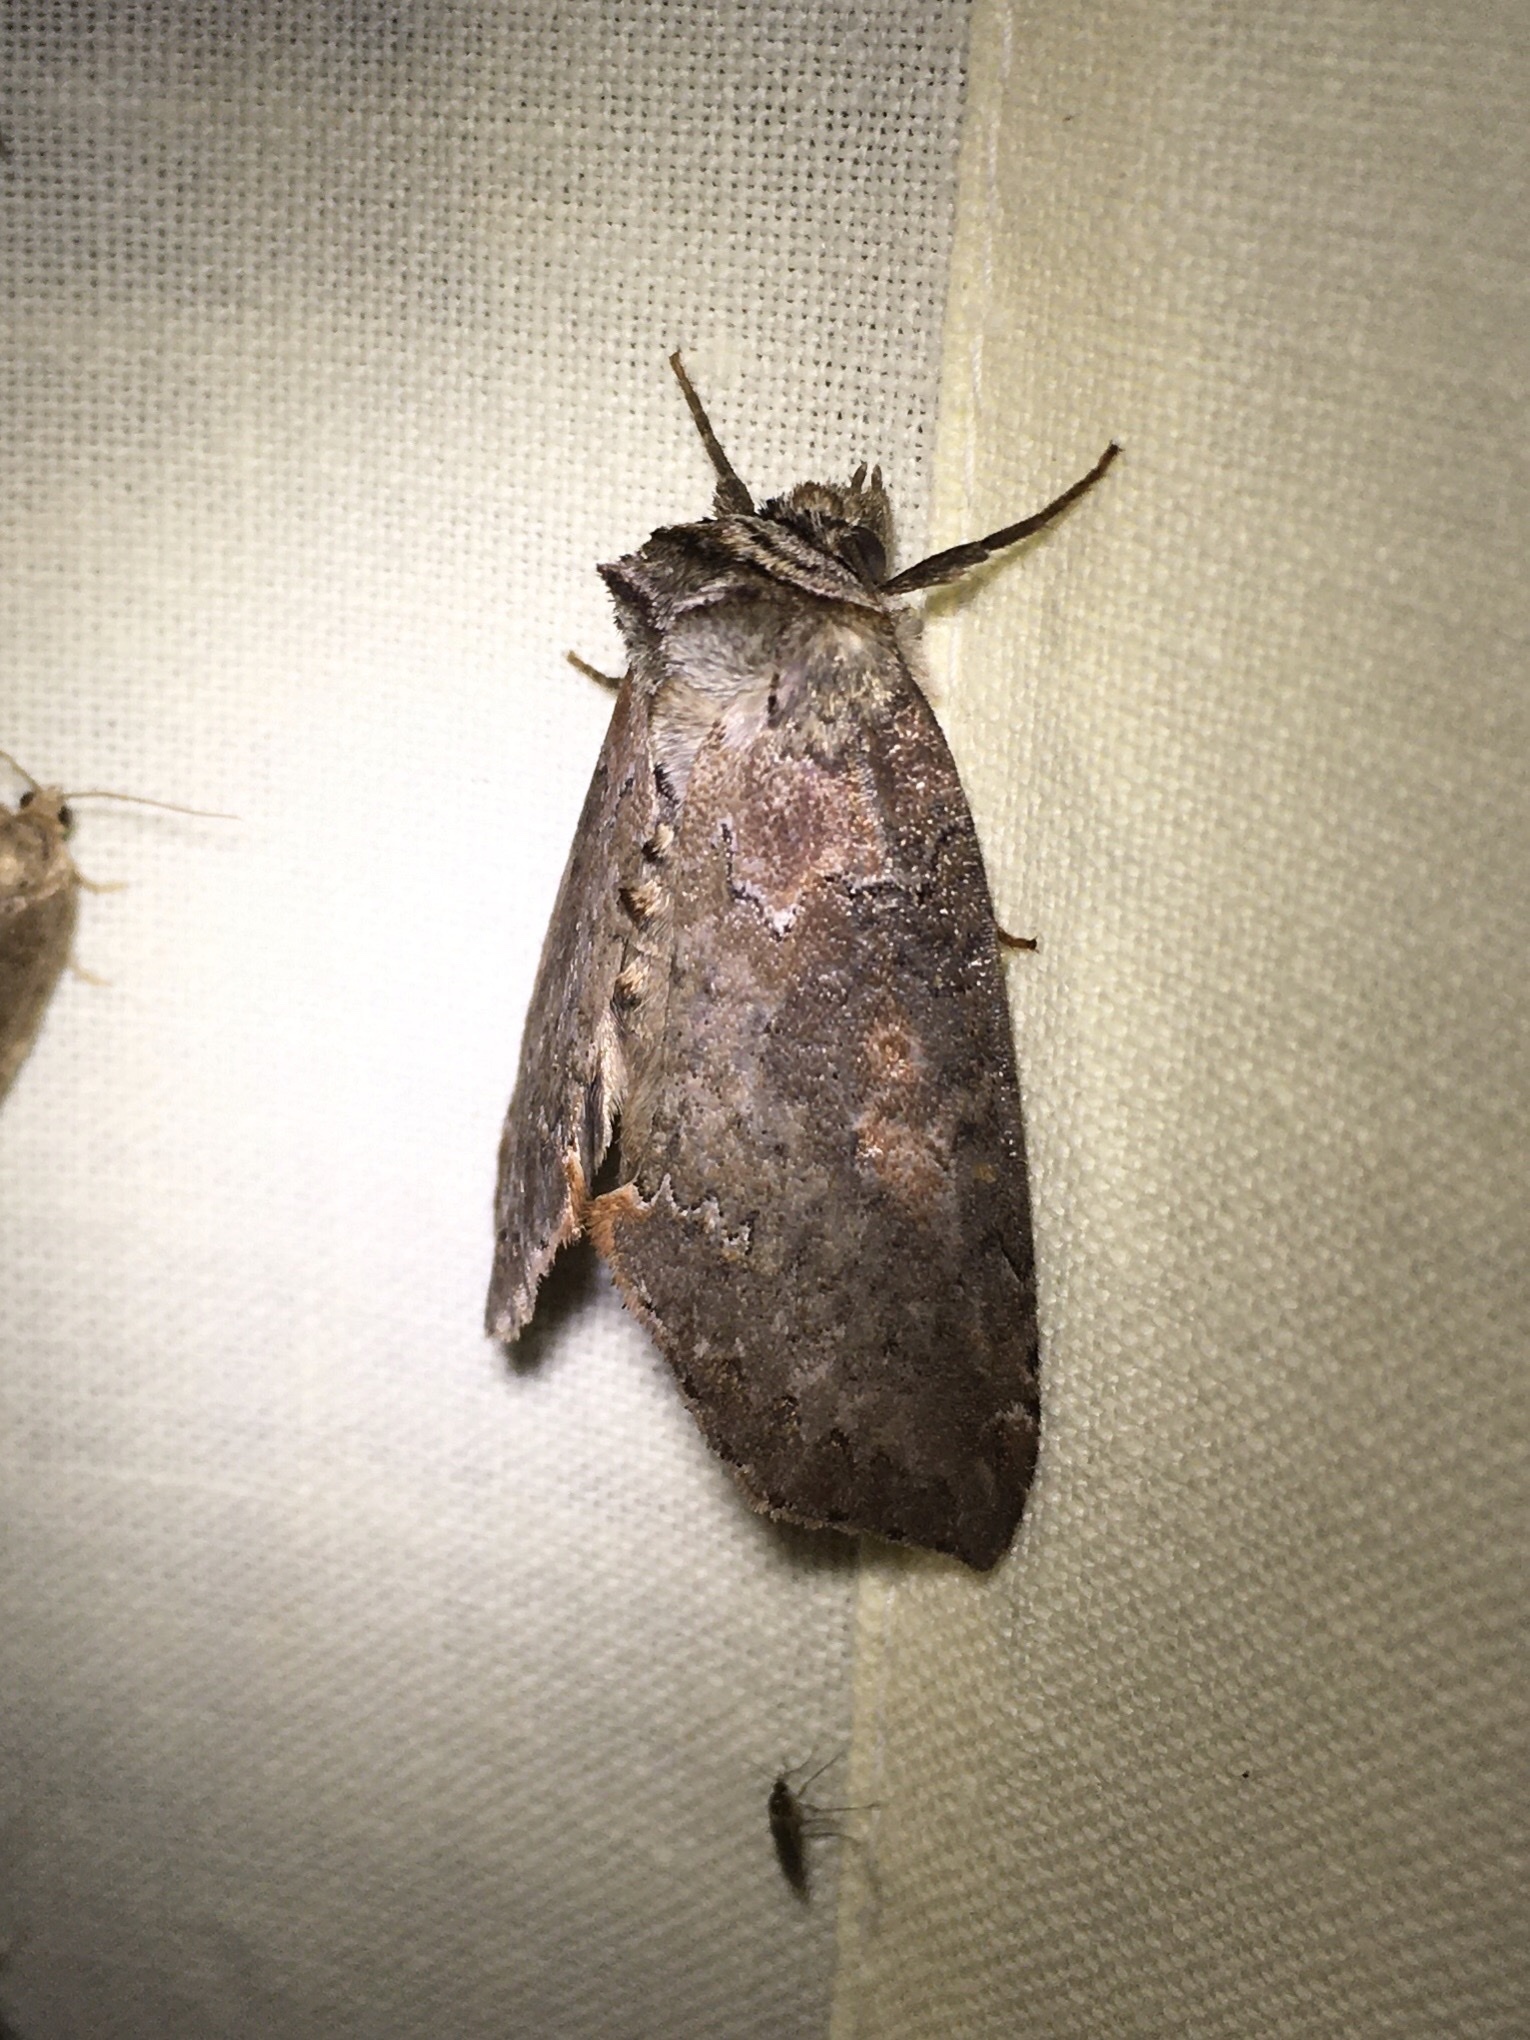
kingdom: Animalia
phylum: Arthropoda
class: Insecta
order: Lepidoptera
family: Drepanidae
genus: Pseudothyatira
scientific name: Pseudothyatira cymatophoroides
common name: Tufted thyatirid moth
